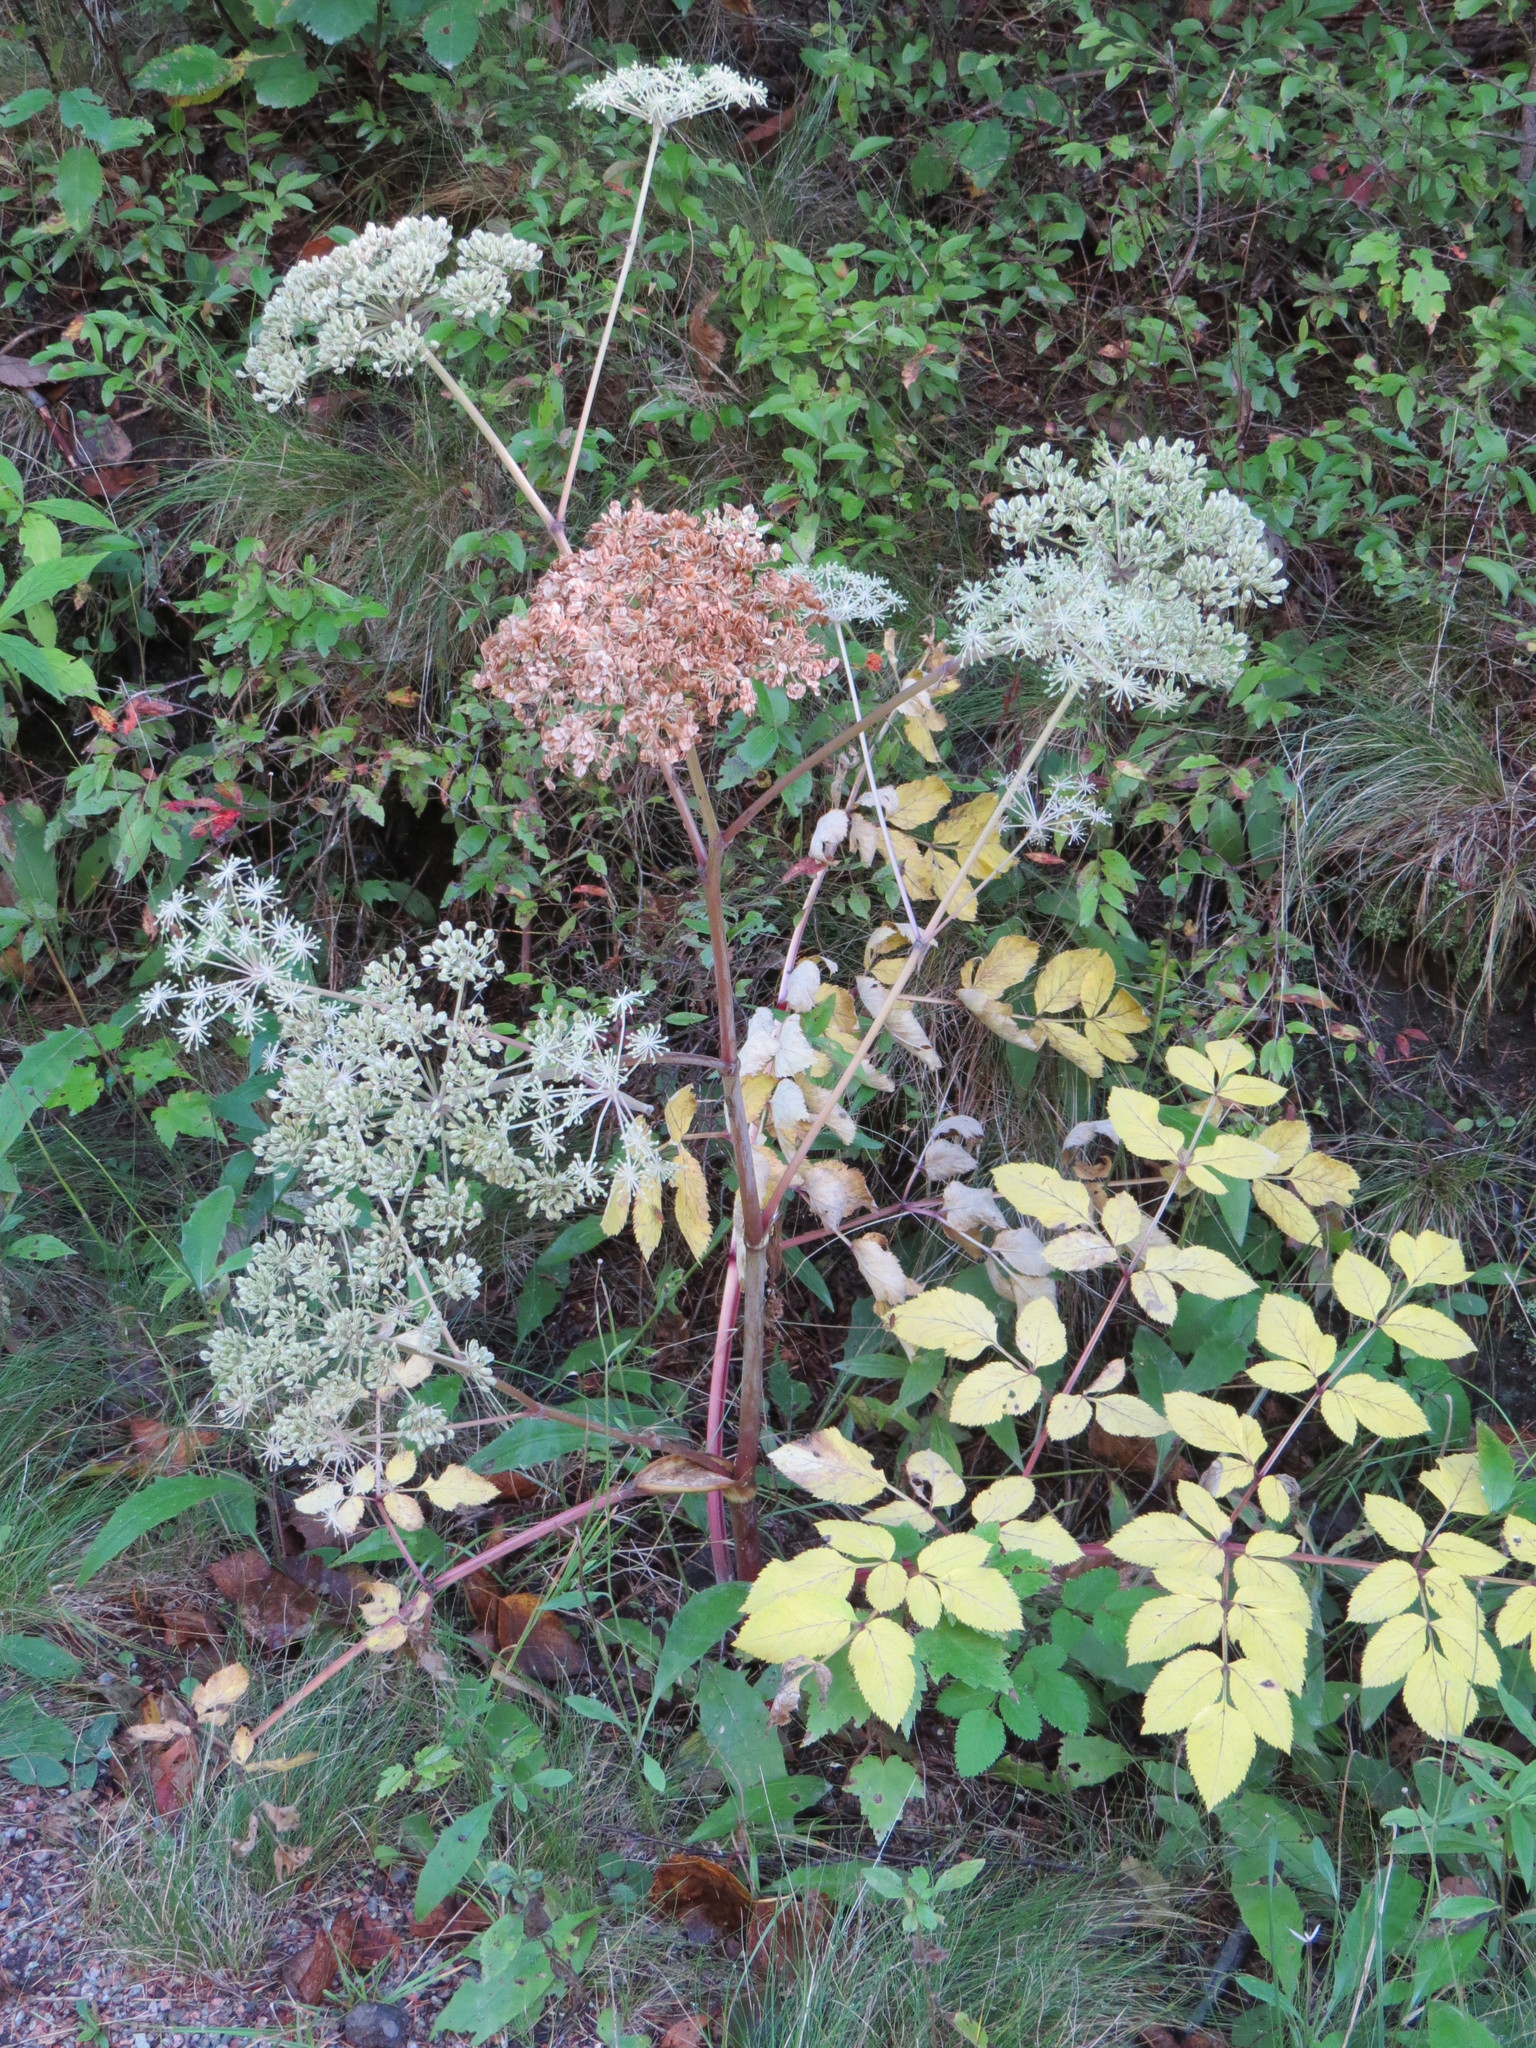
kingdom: Plantae
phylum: Tracheophyta
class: Magnoliopsida
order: Apiales
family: Apiaceae
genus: Angelica
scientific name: Angelica sylvestris
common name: Wild angelica
